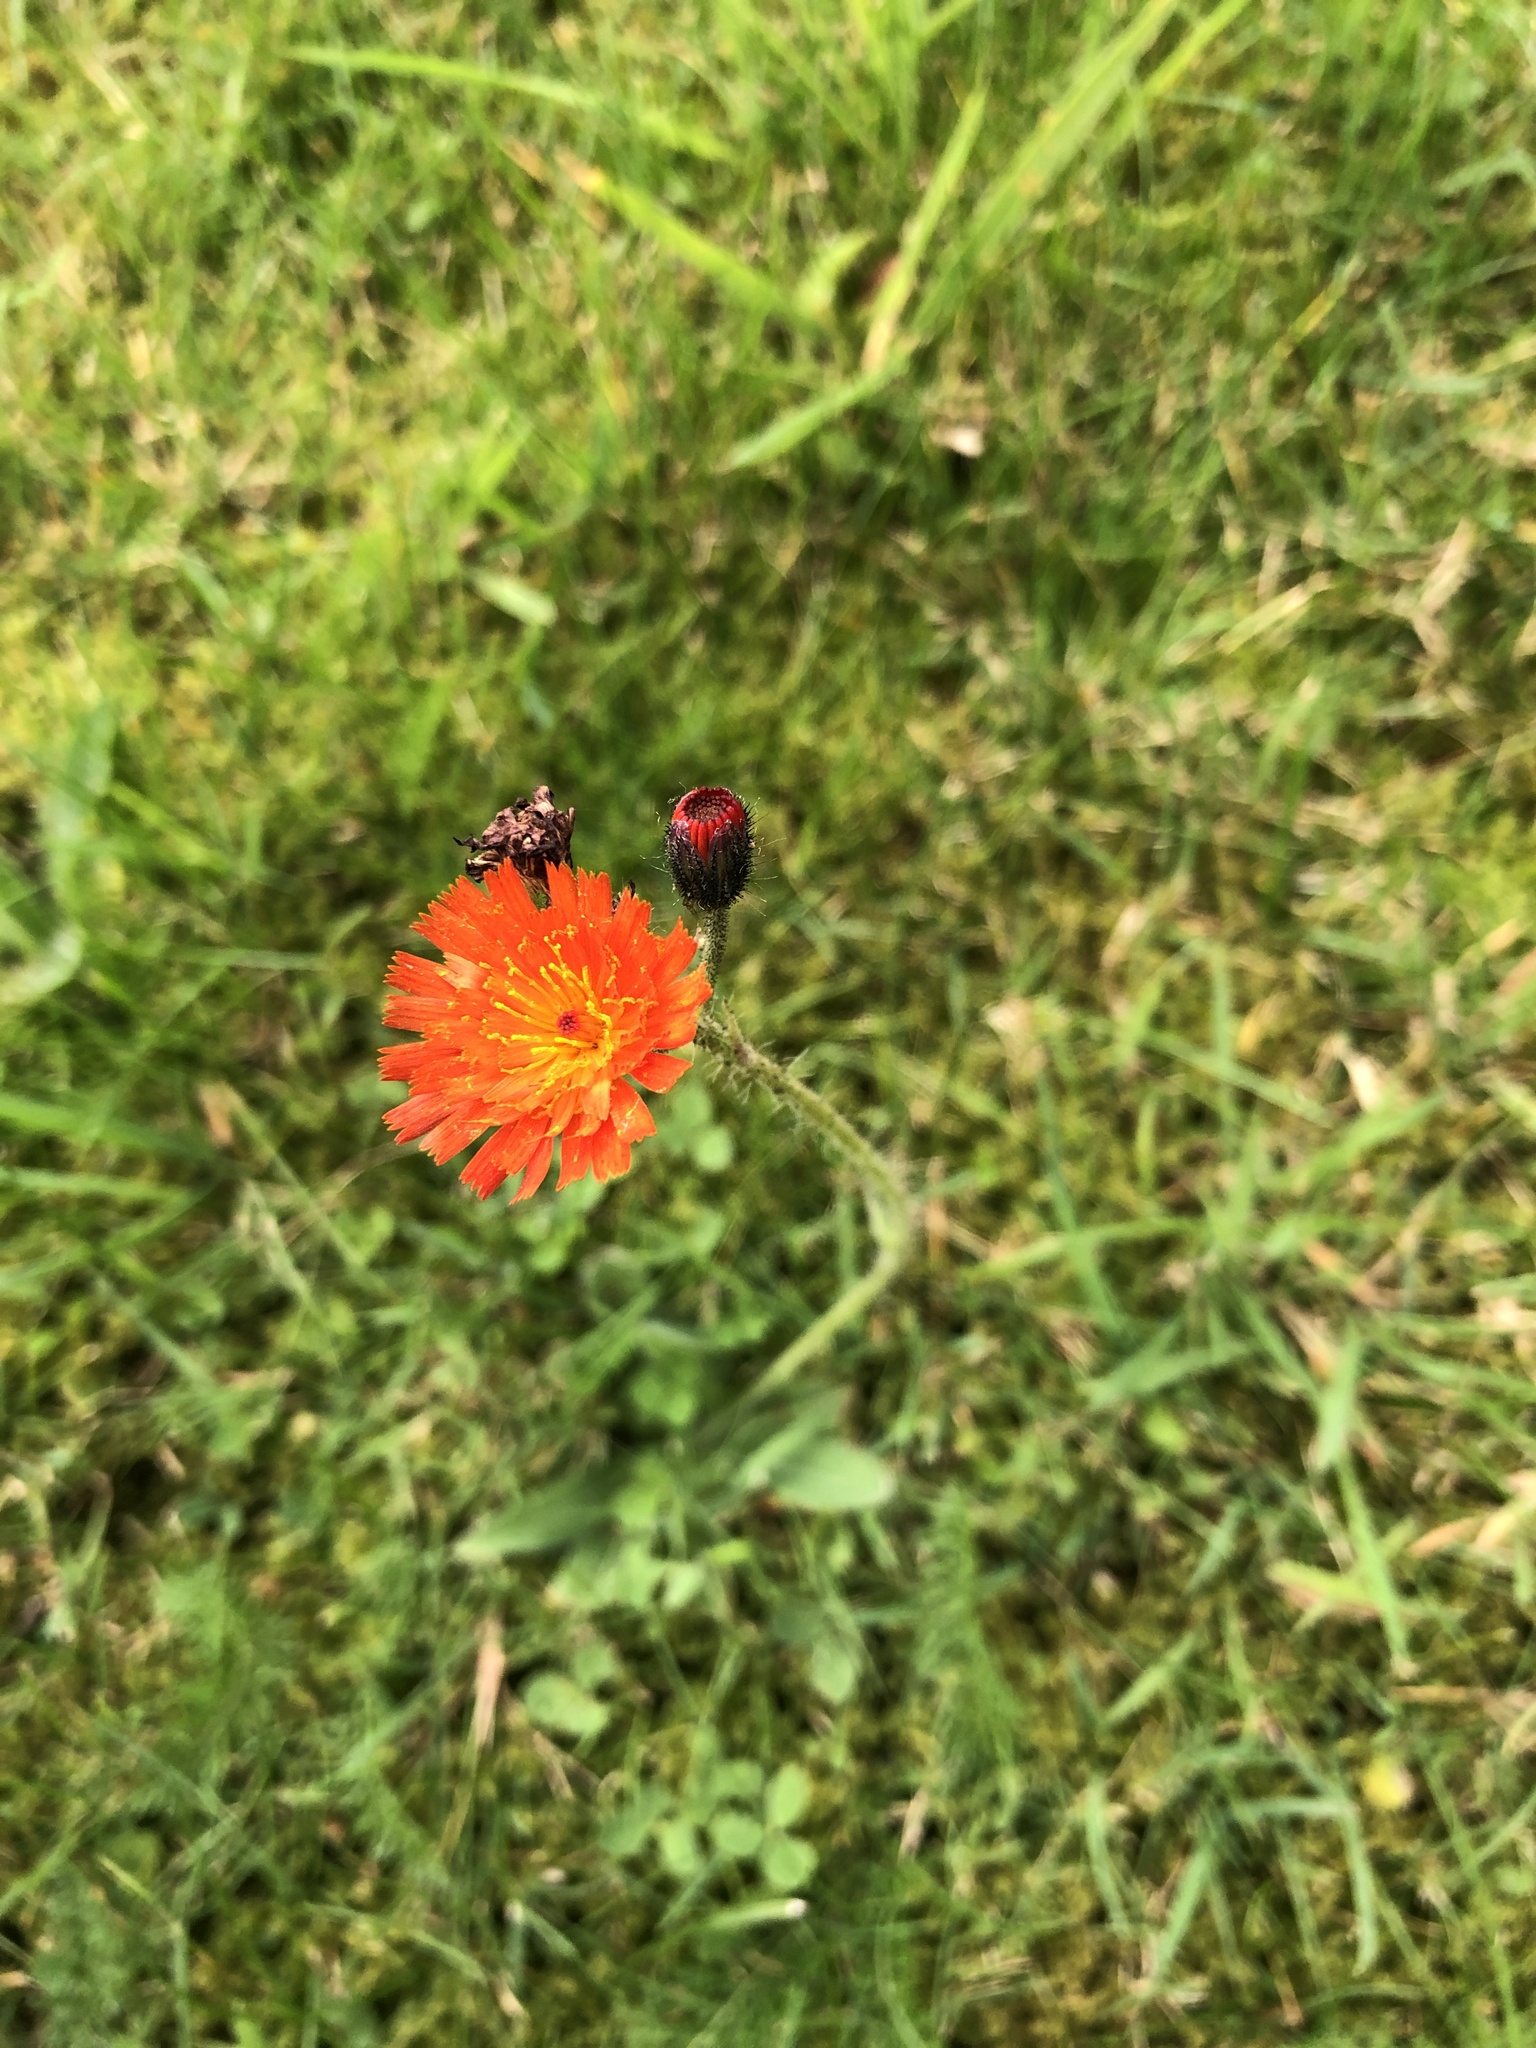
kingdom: Plantae
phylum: Tracheophyta
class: Magnoliopsida
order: Asterales
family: Asteraceae
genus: Pilosella
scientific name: Pilosella aurantiaca
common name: Fox-and-cubs
